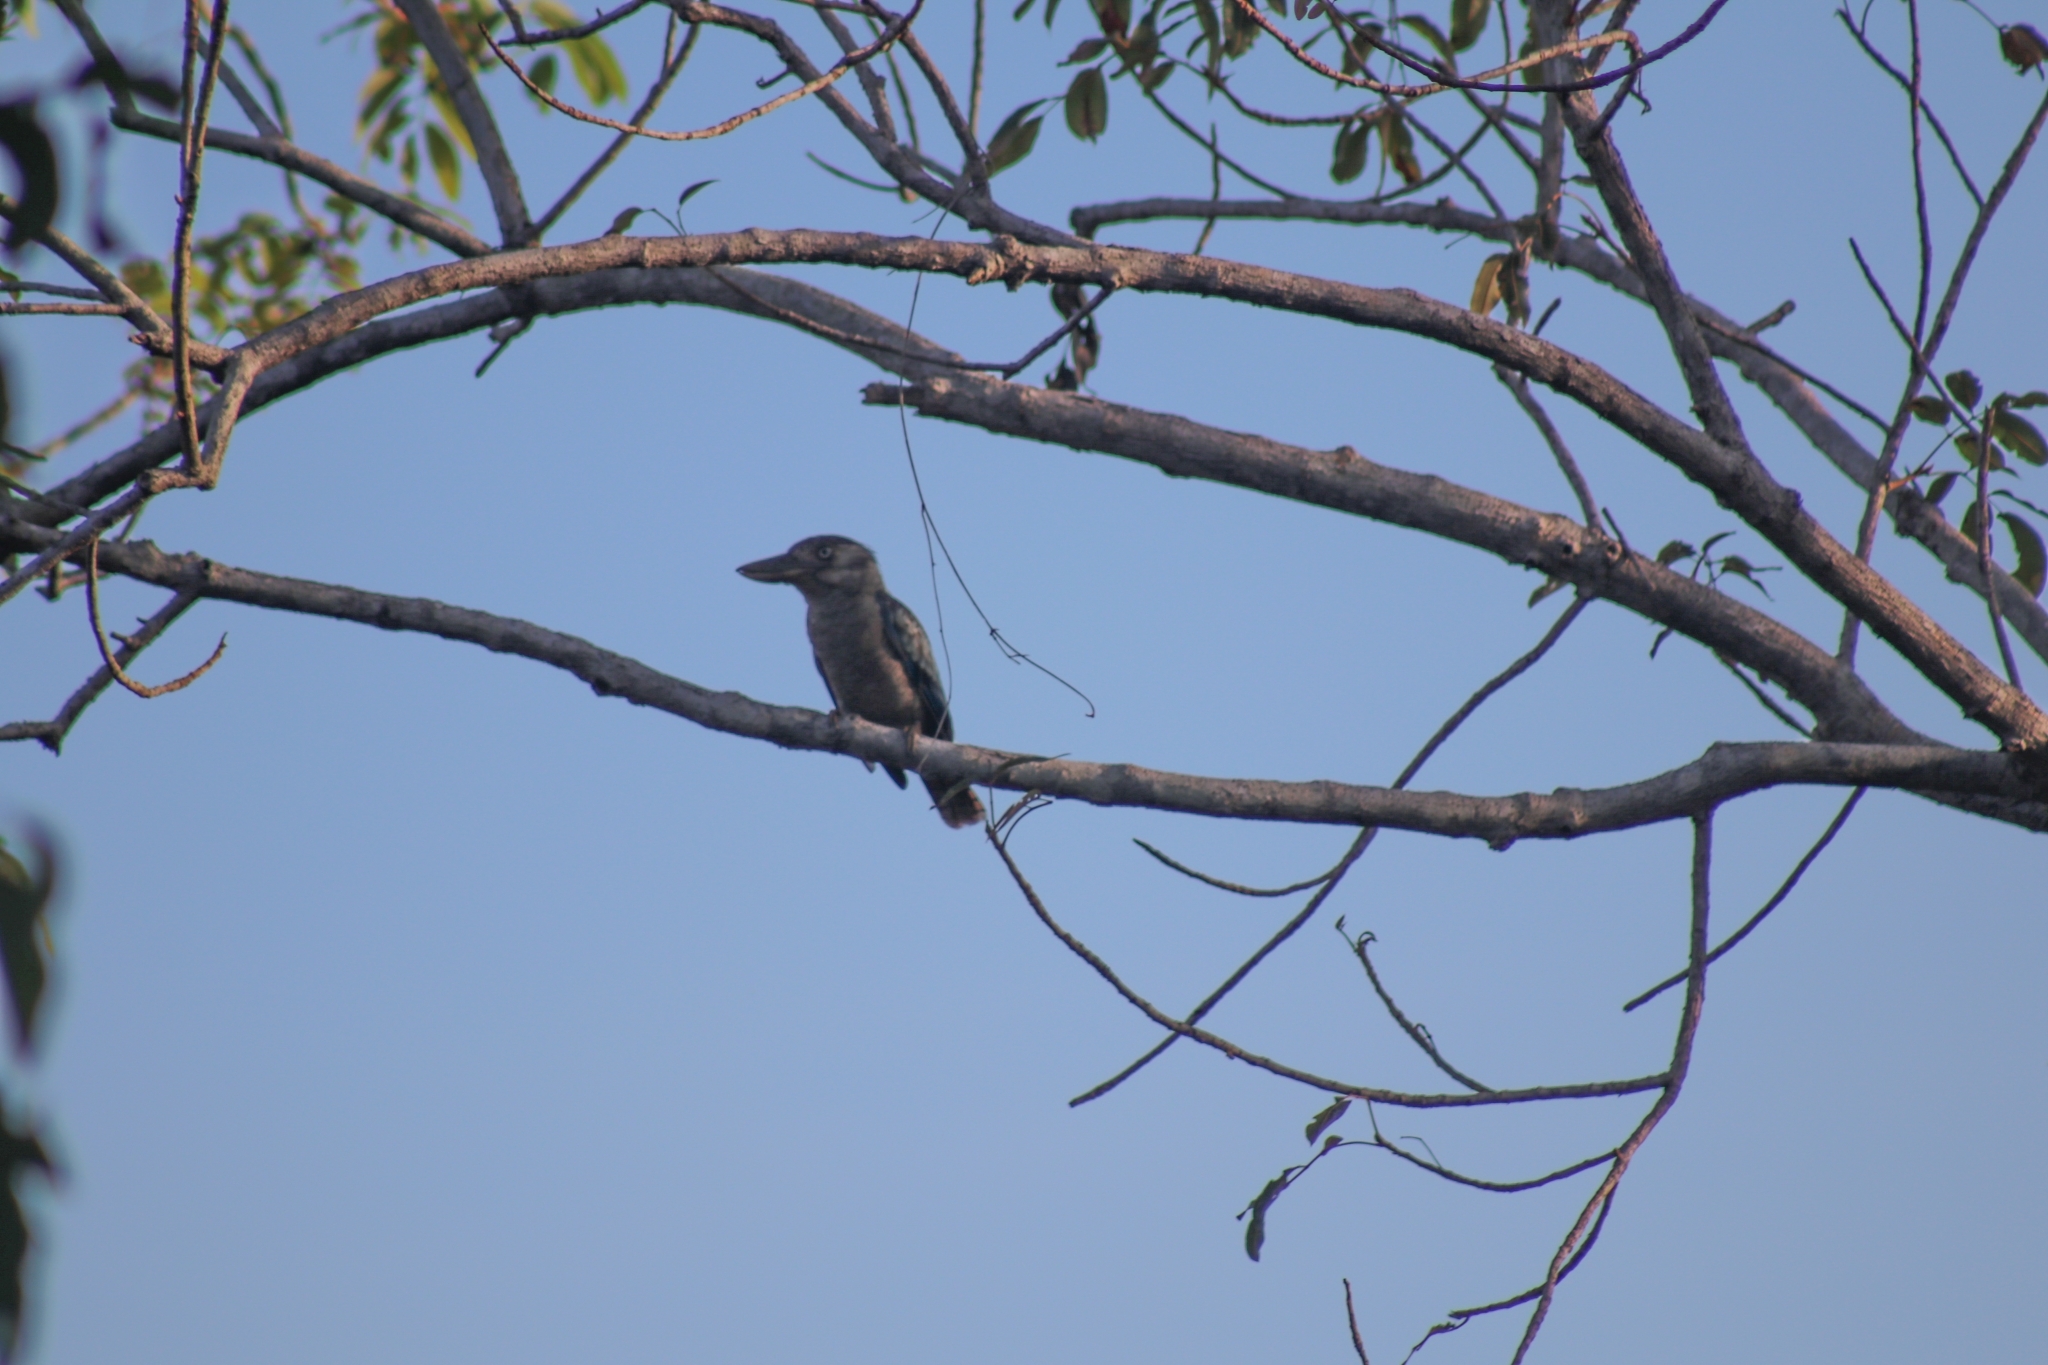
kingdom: Animalia
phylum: Chordata
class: Aves
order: Coraciiformes
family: Alcedinidae
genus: Dacelo
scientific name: Dacelo leachii
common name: Blue-winged kookaburra
